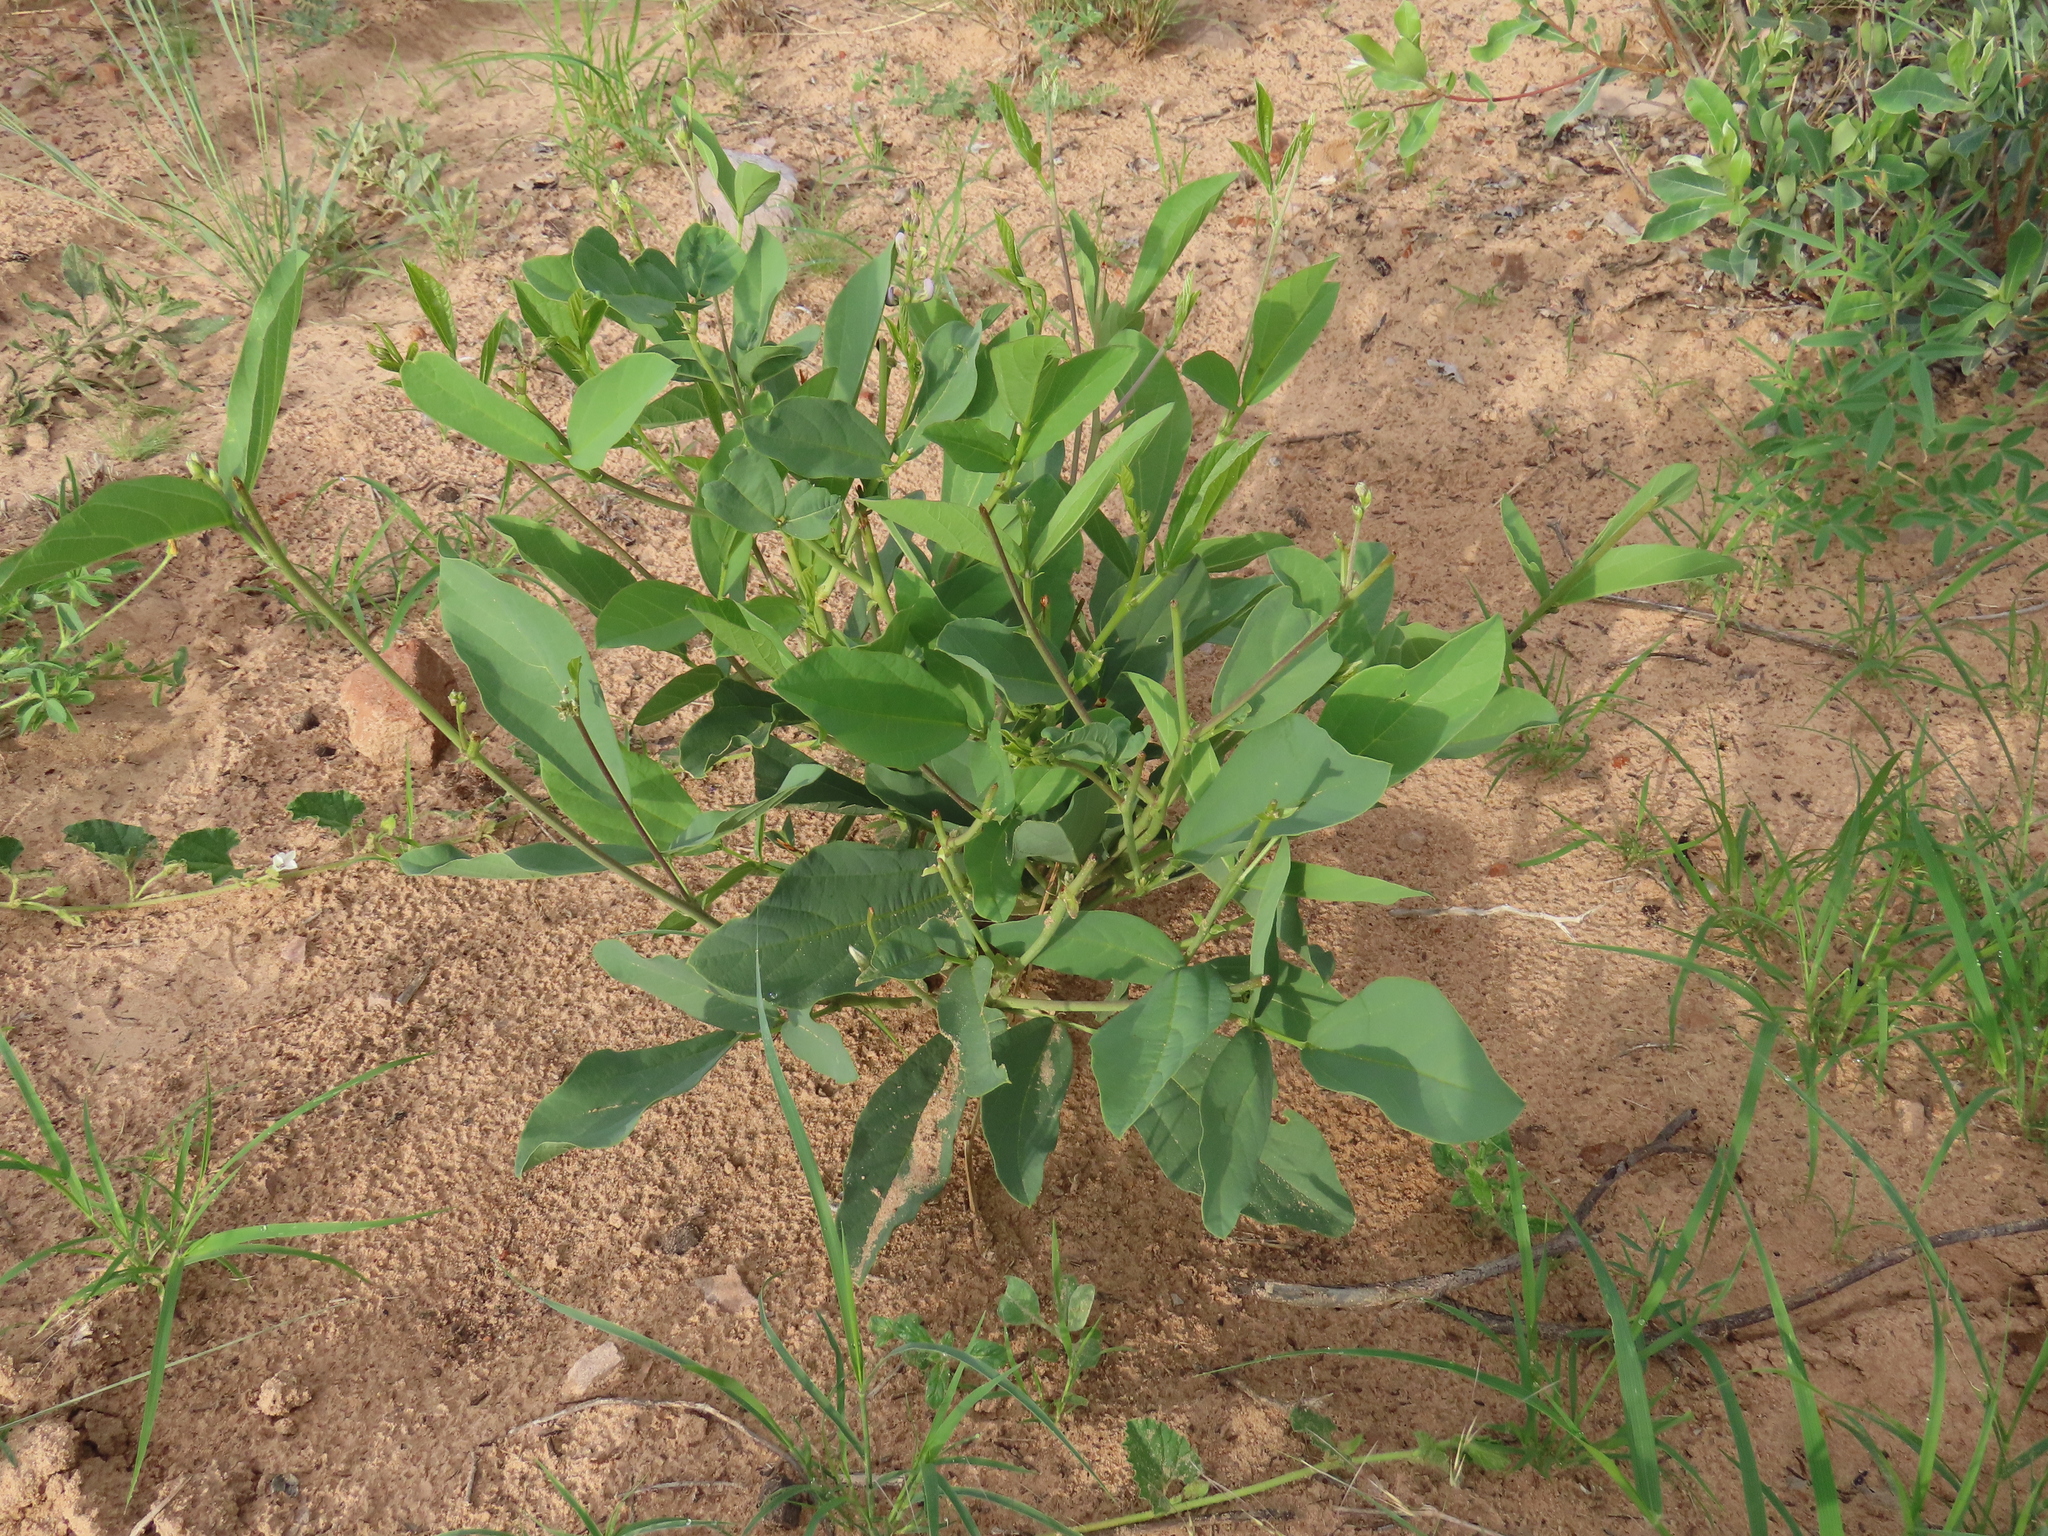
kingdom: Plantae
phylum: Tracheophyta
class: Magnoliopsida
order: Fabales
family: Fabaceae
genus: Neorautanenia
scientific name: Neorautanenia mitis
